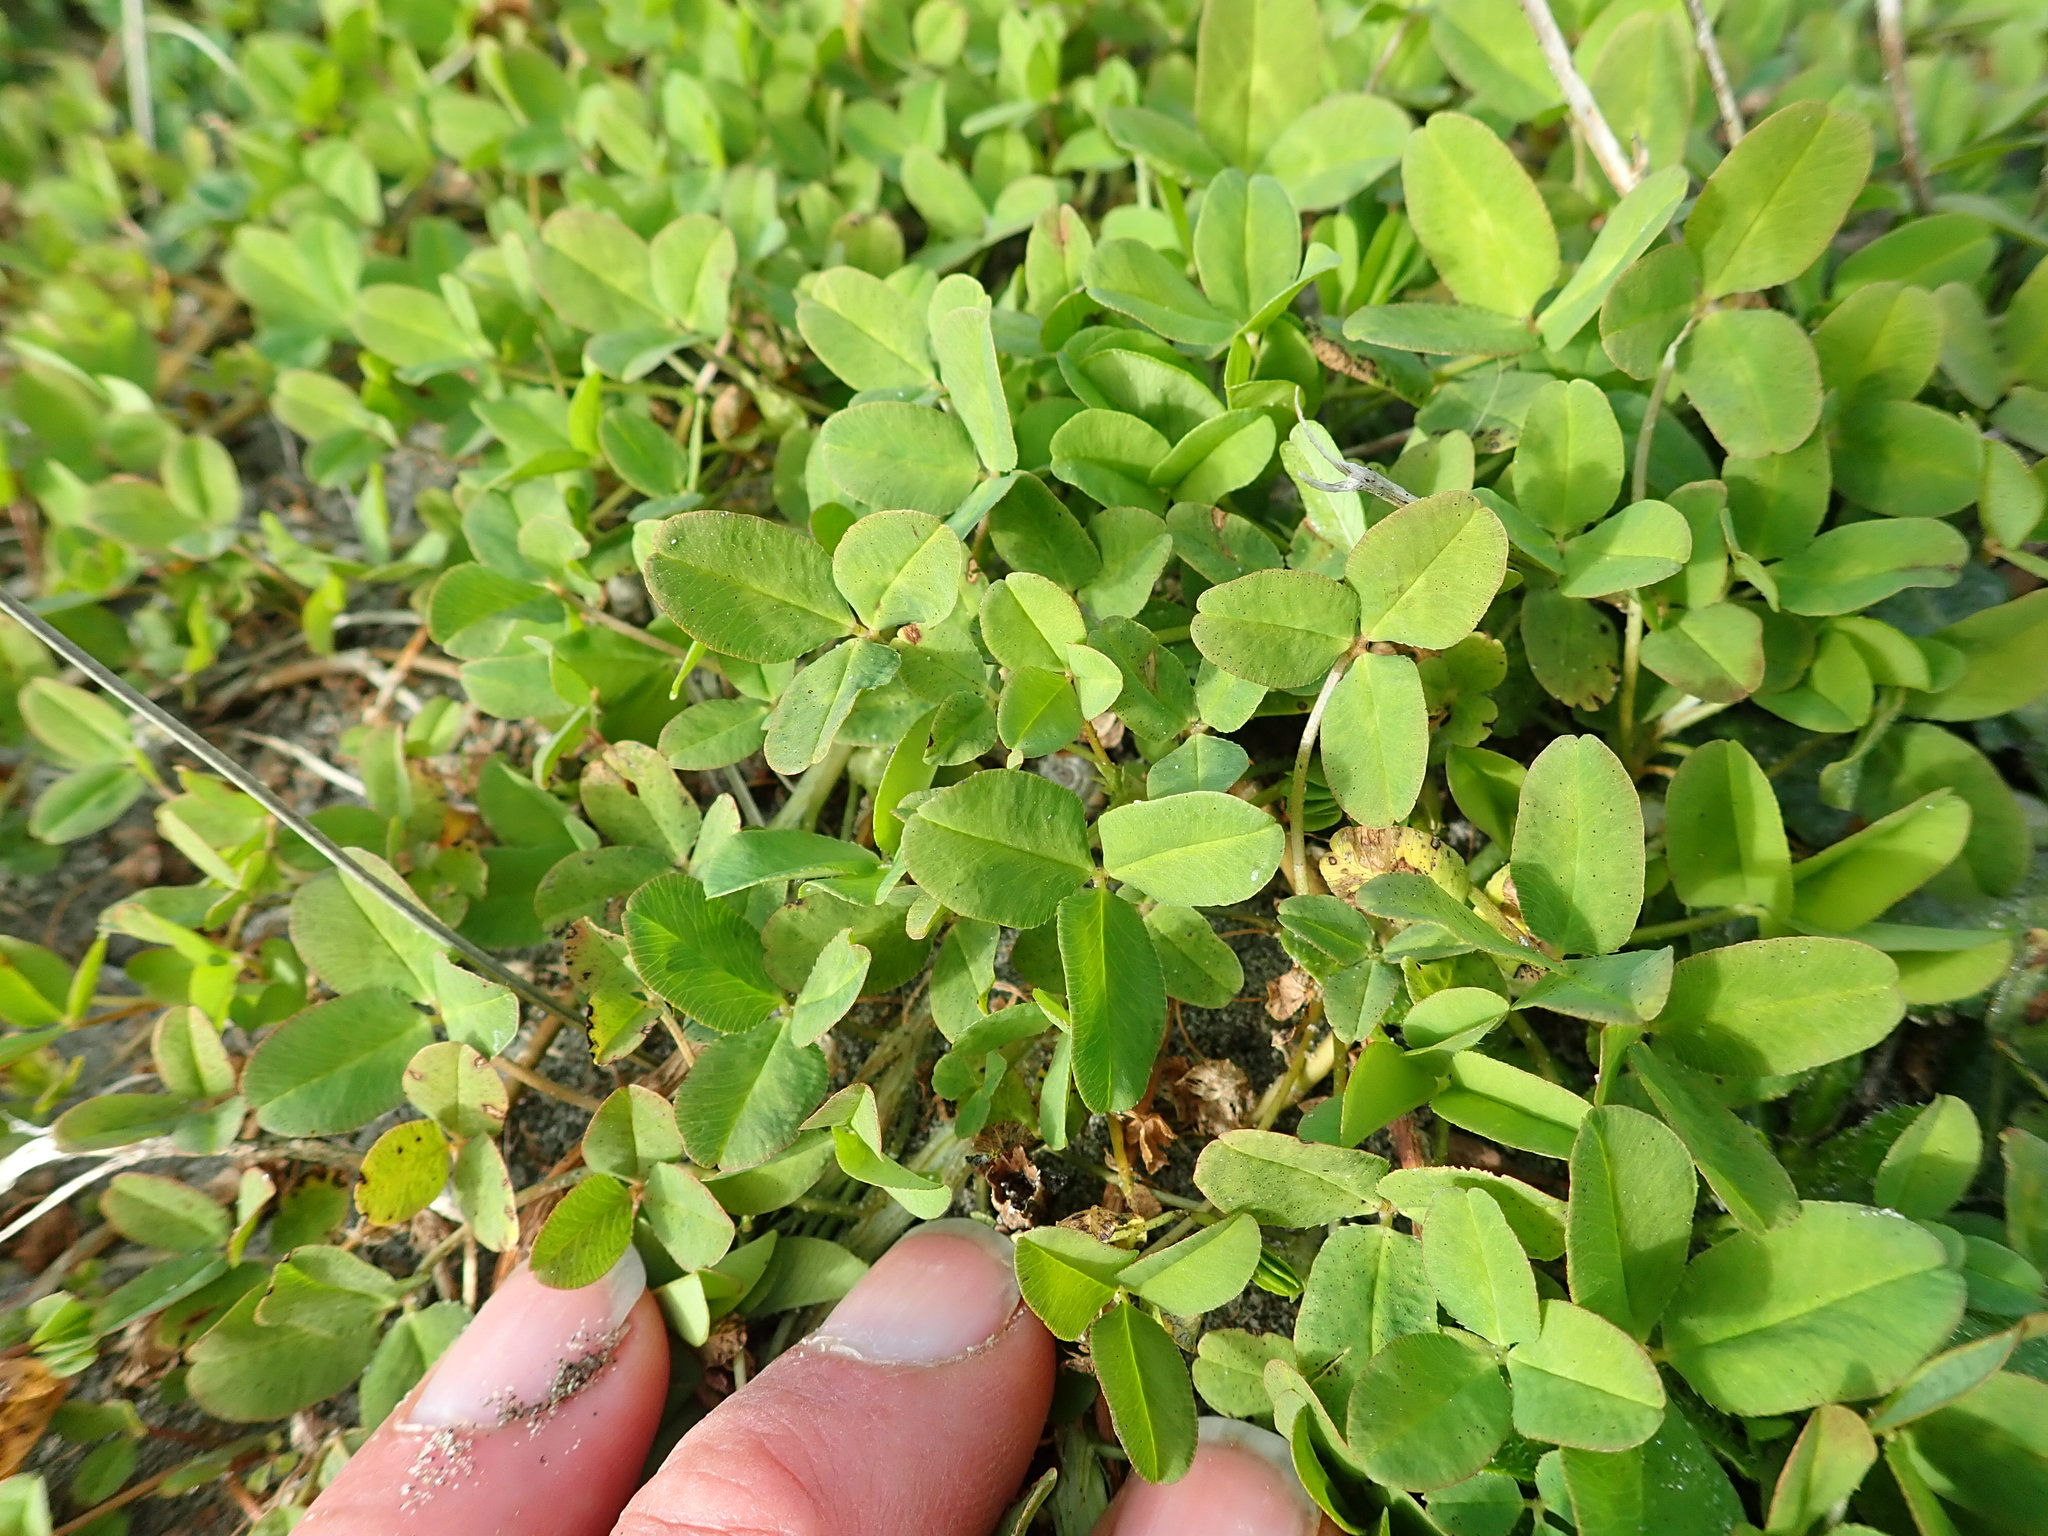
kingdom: Plantae
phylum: Tracheophyta
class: Magnoliopsida
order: Fabales
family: Fabaceae
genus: Trifolium
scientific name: Trifolium fragiferum
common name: Strawberry clover
